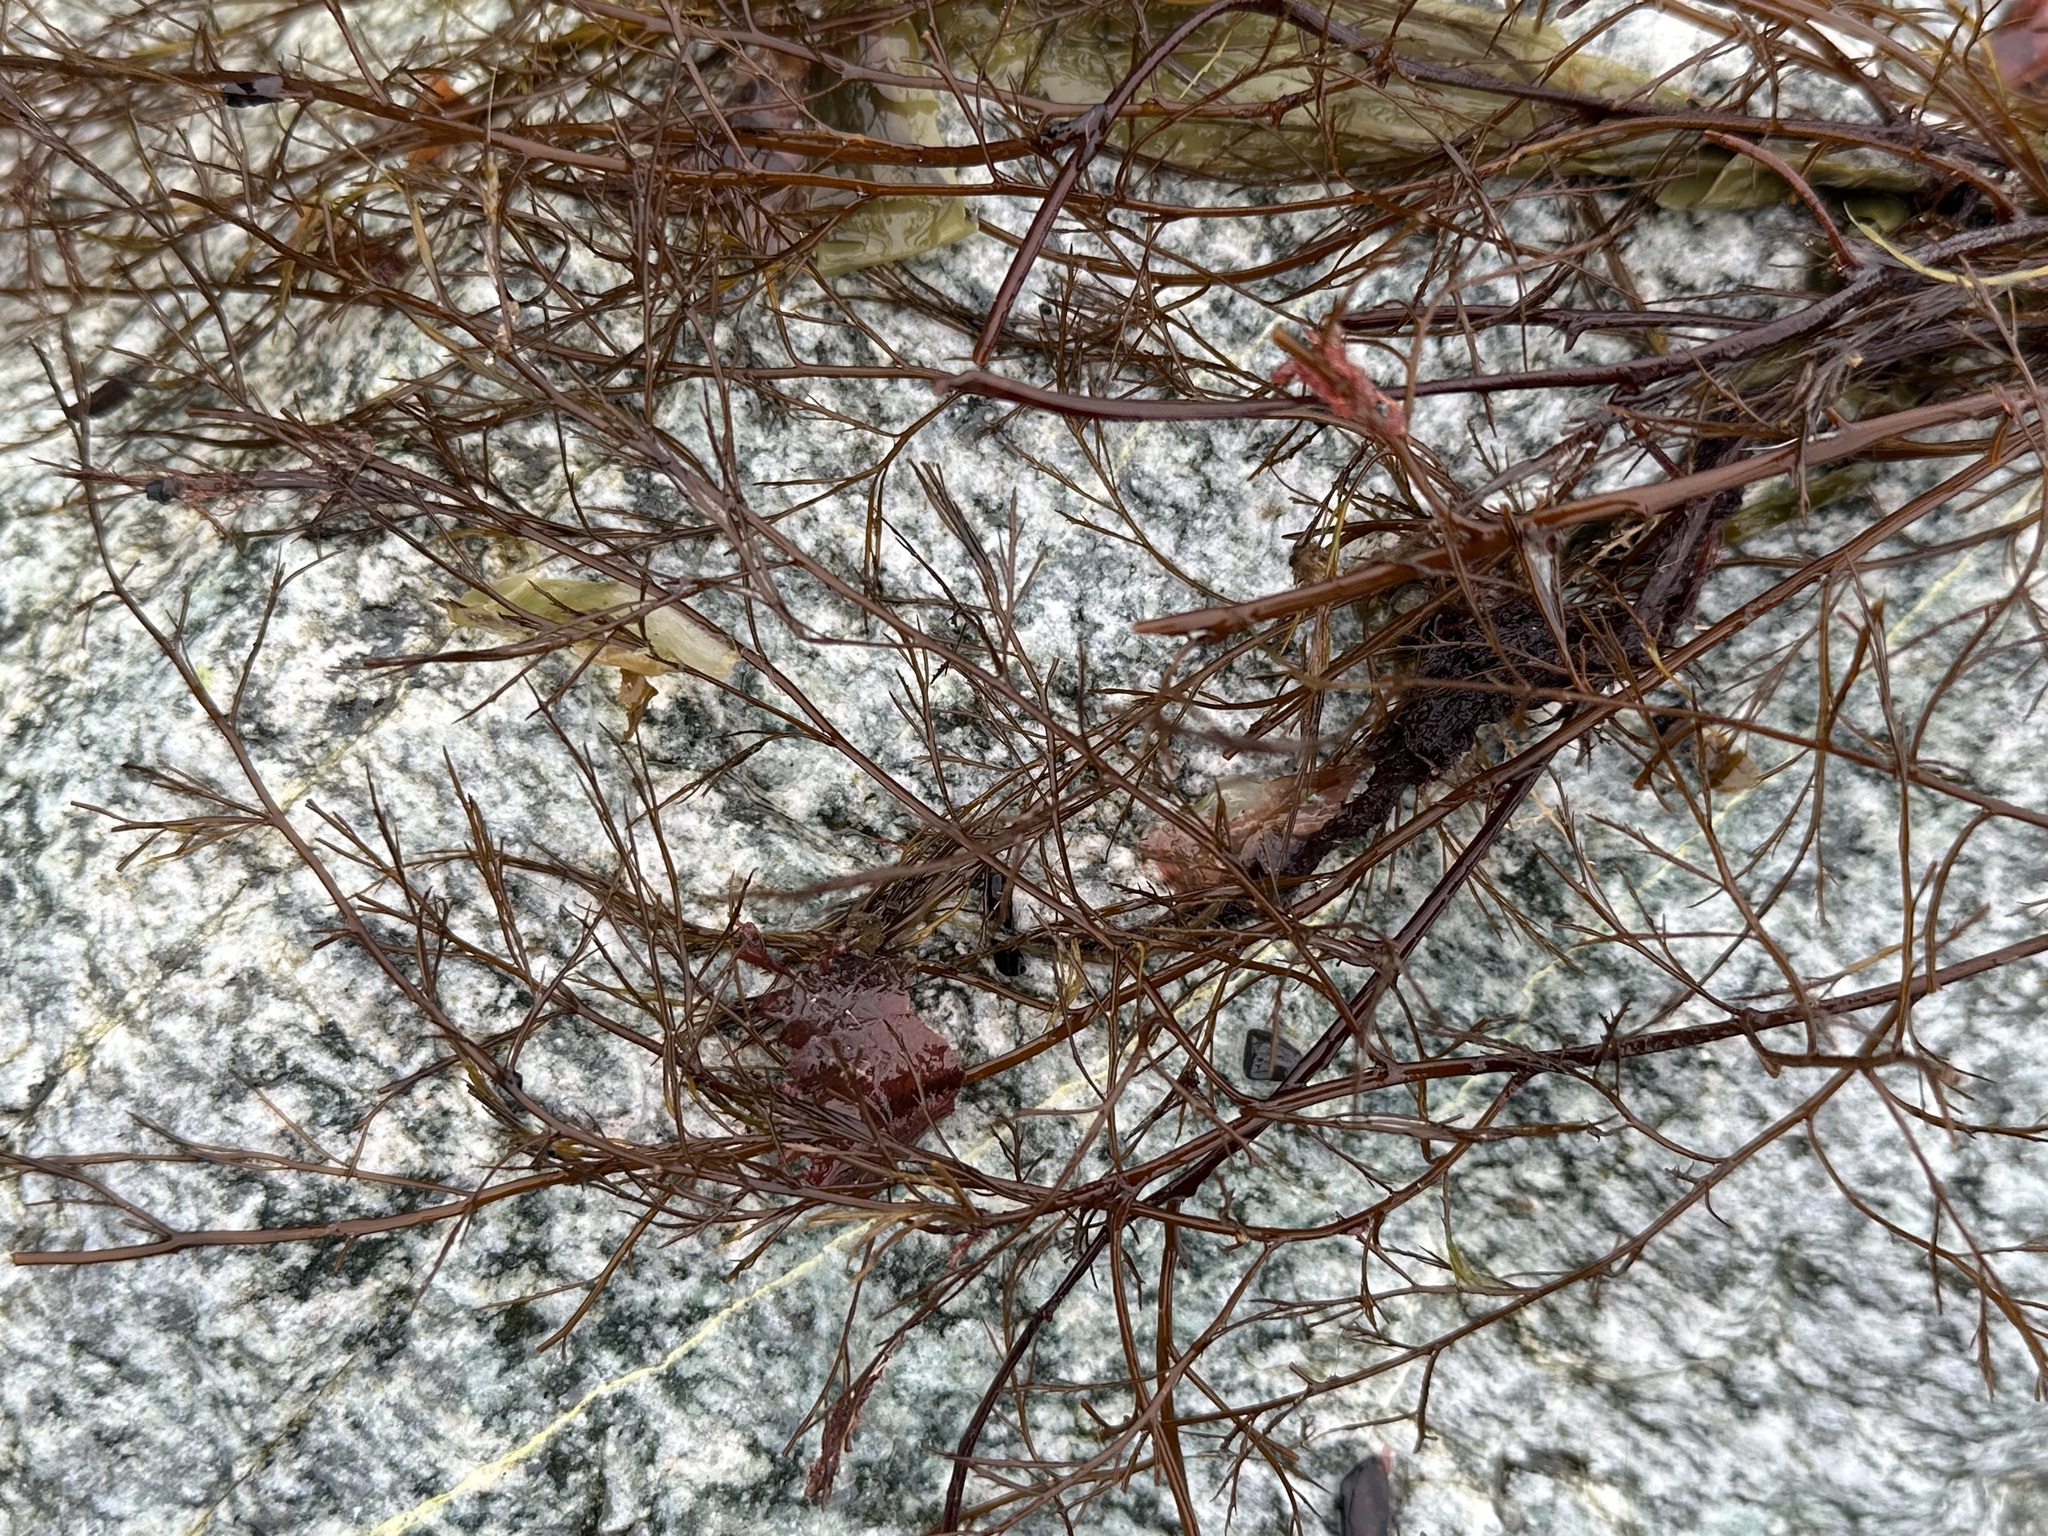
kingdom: Chromista
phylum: Ochrophyta
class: Phaeophyceae
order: Desmarestiales
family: Desmarestiaceae
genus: Desmarestia
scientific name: Desmarestia aculeata
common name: Witch's hair
